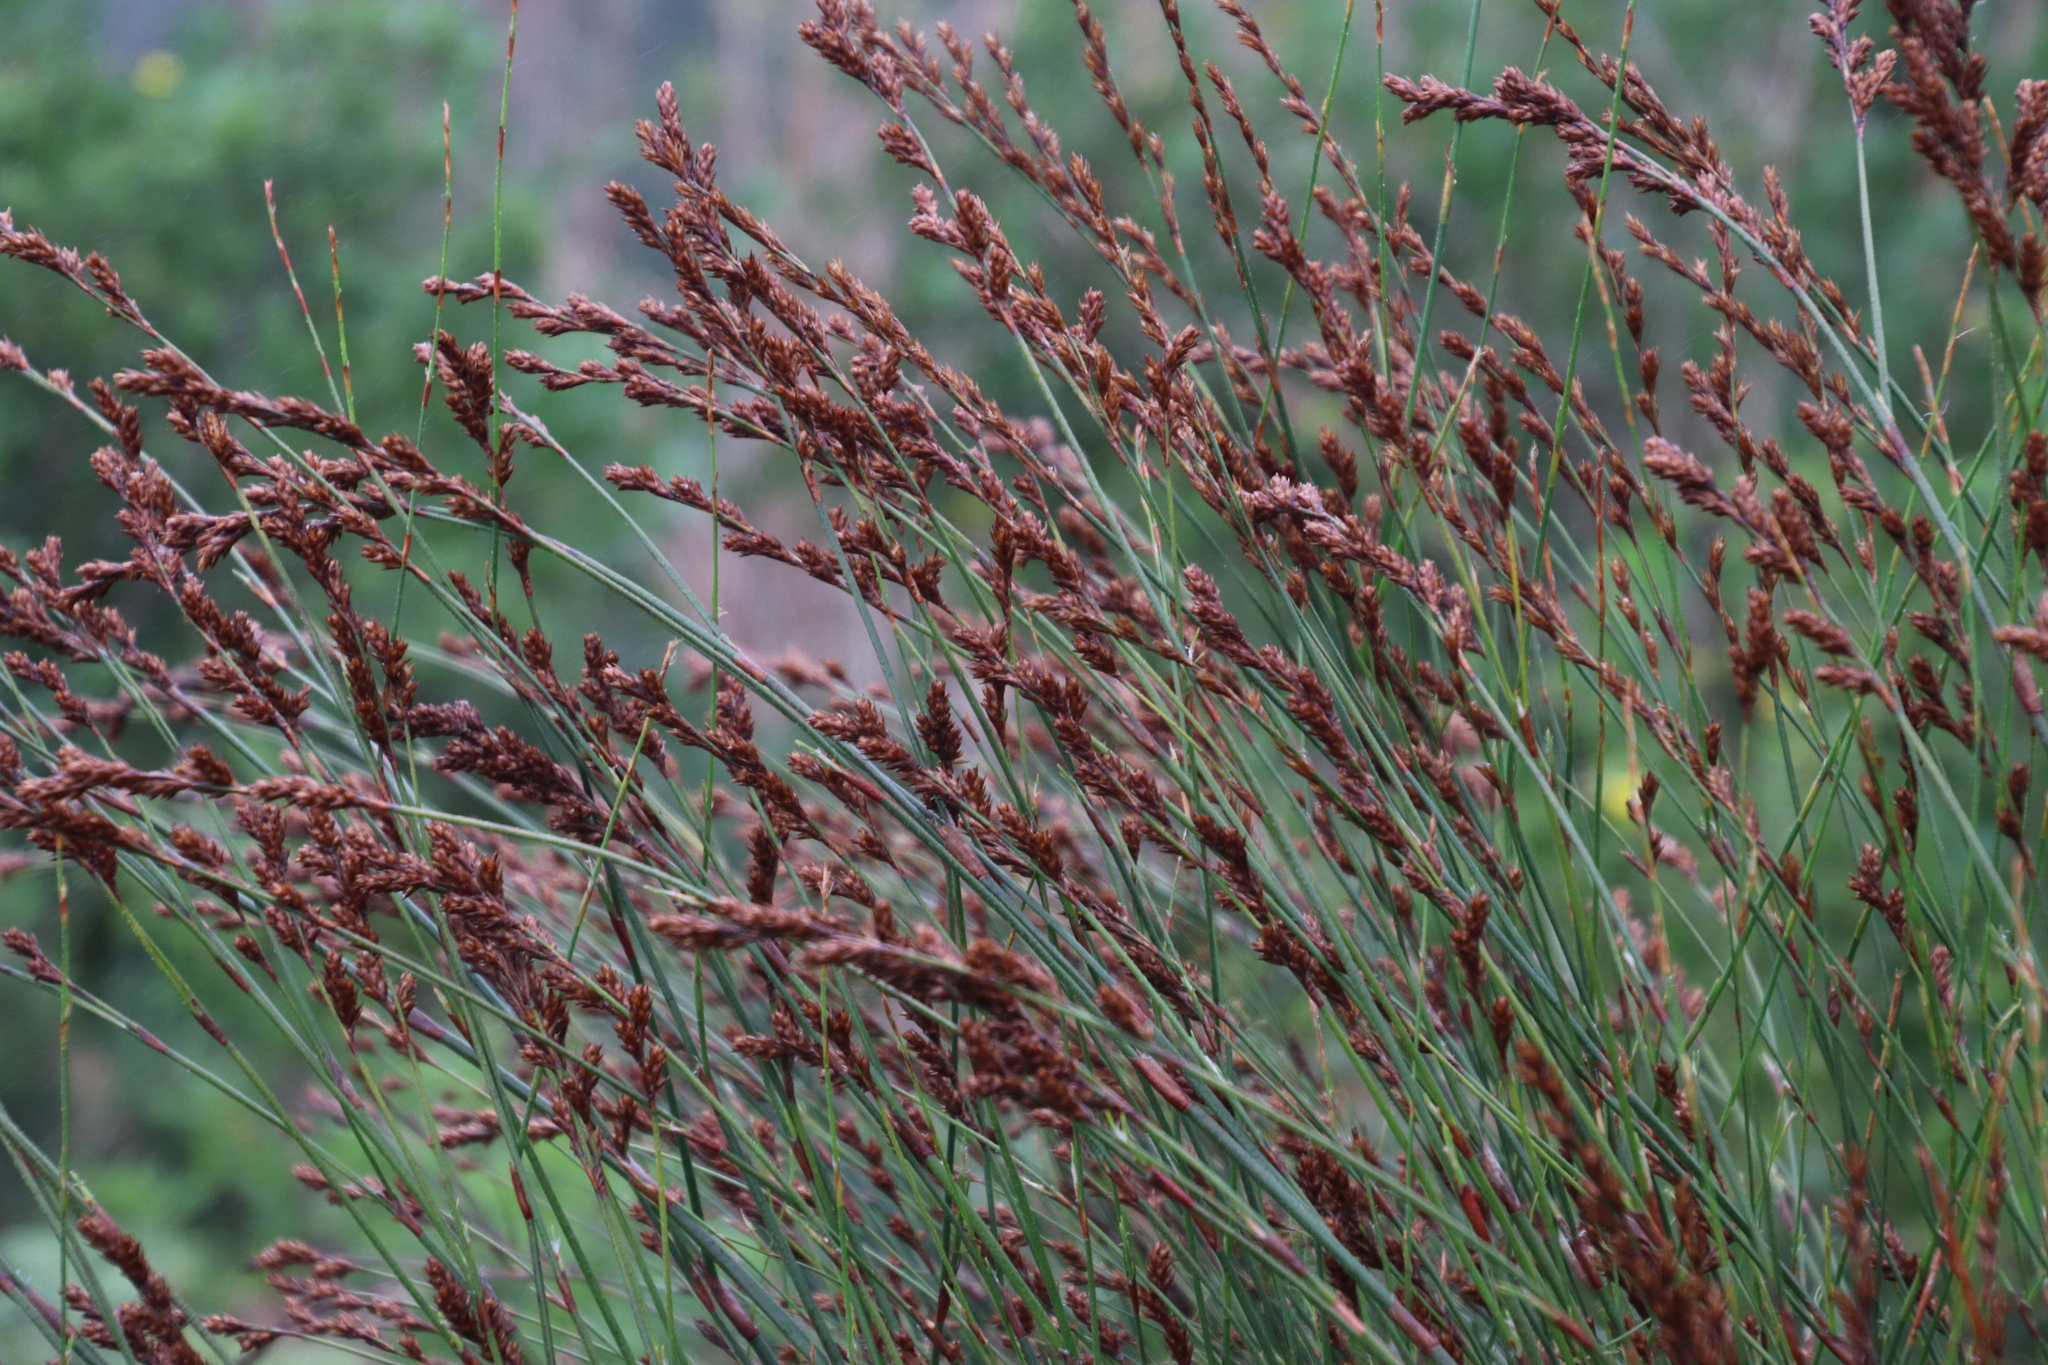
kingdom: Plantae
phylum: Tracheophyta
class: Liliopsida
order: Poales
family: Restionaceae
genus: Restio
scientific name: Restio multiflorus
